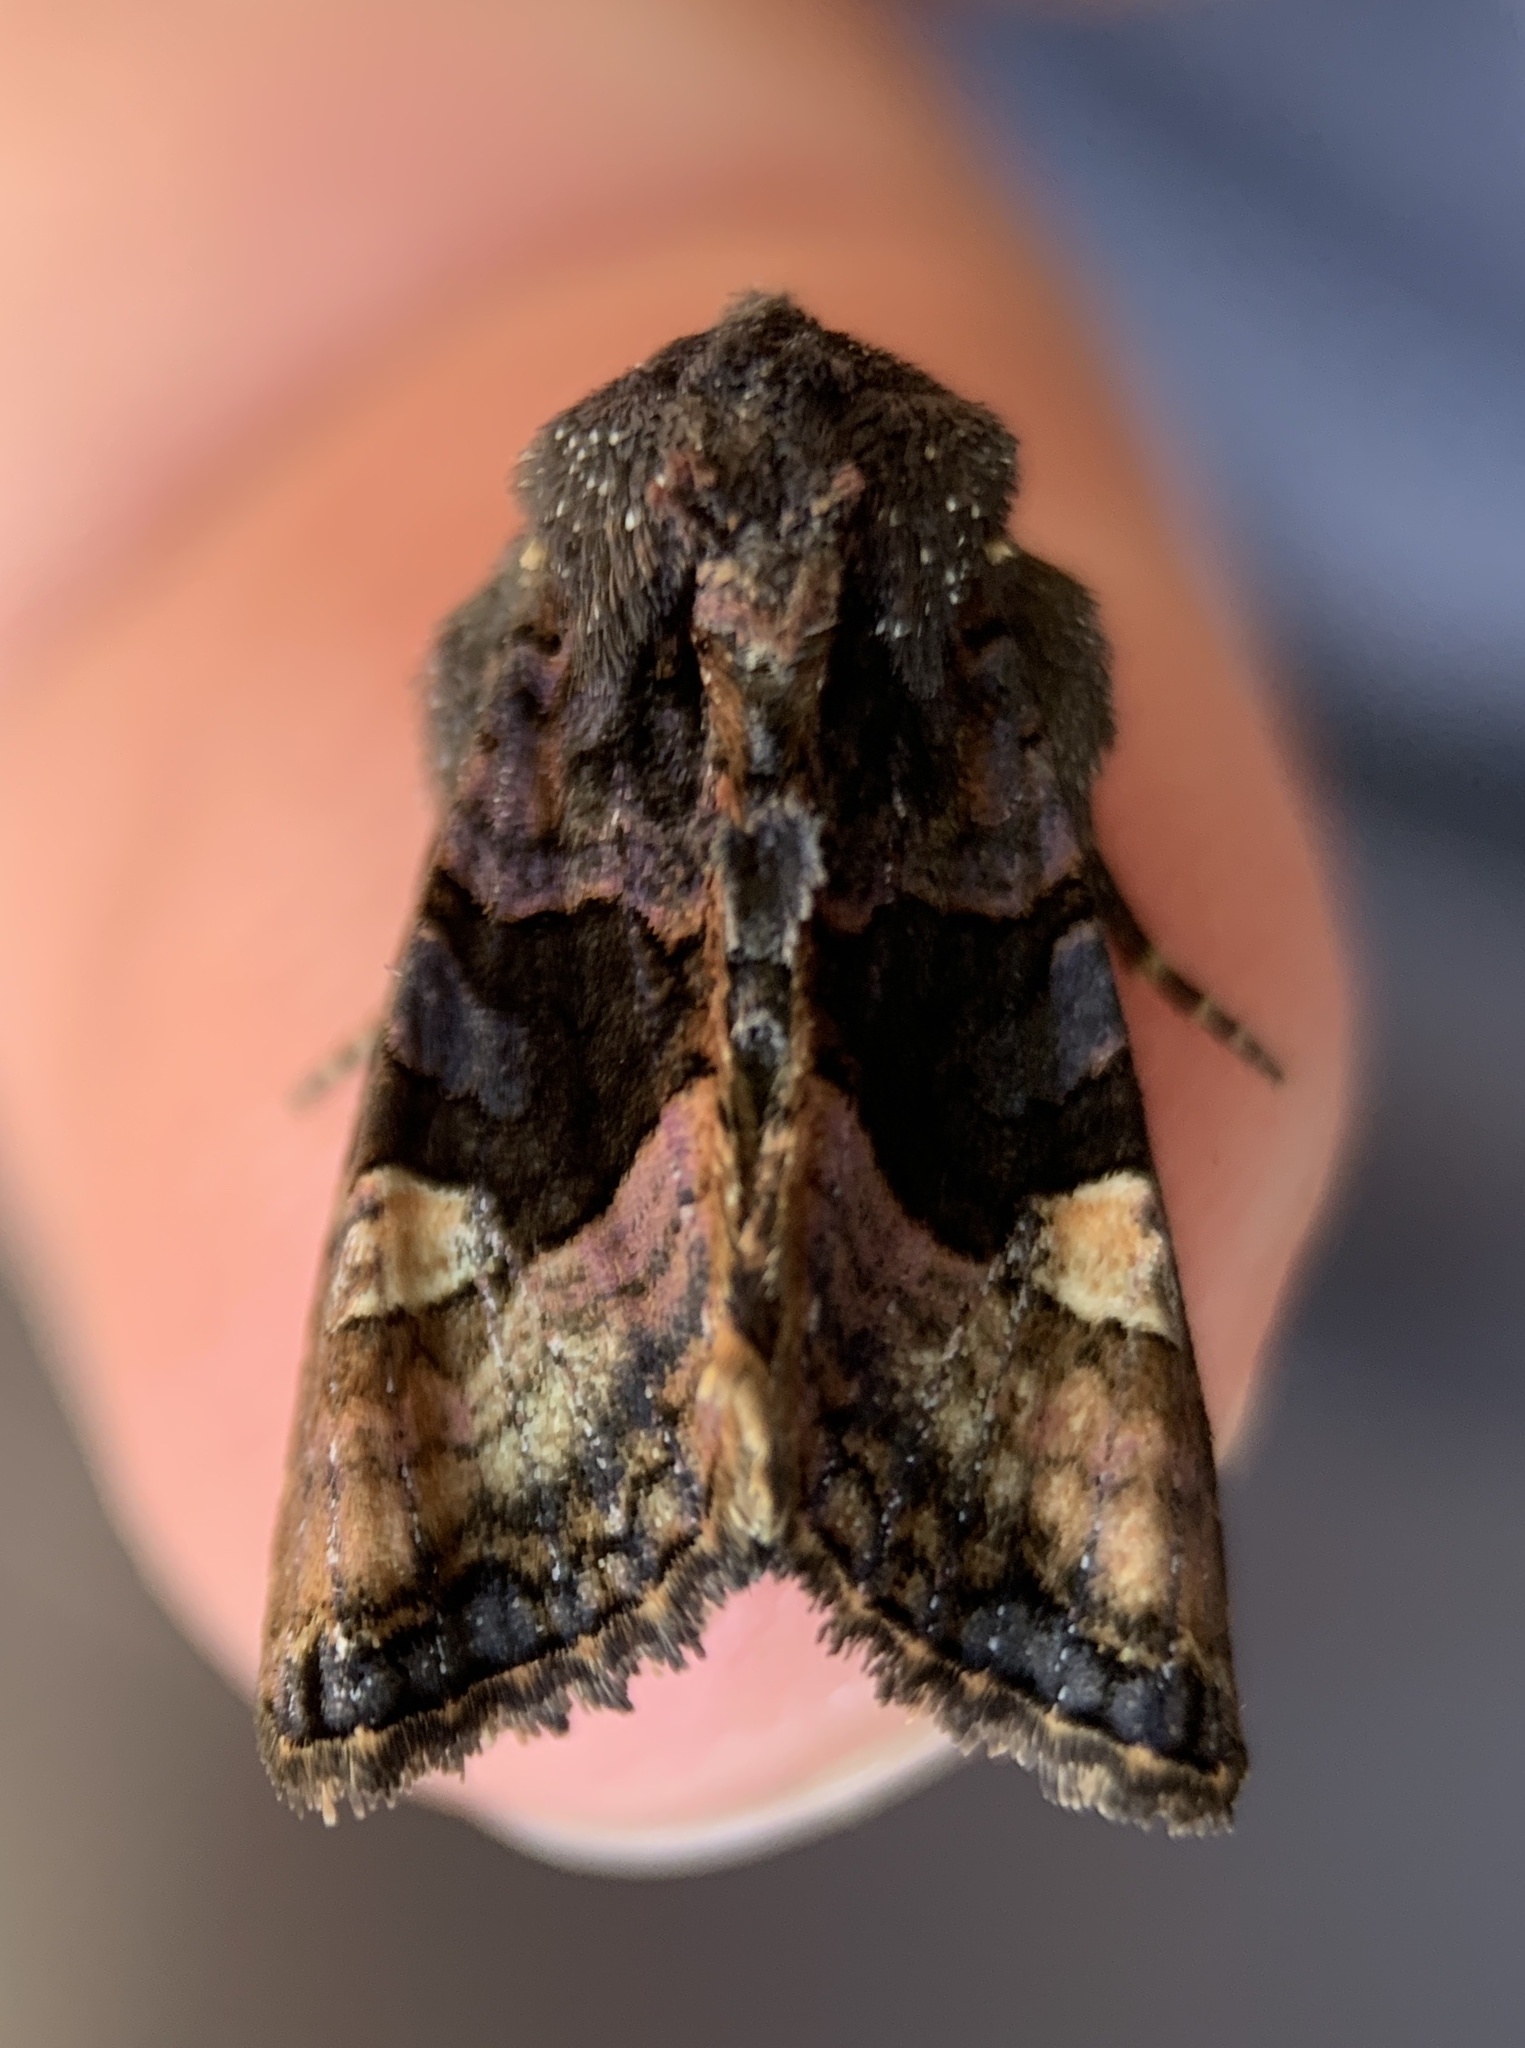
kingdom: Animalia
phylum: Arthropoda
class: Insecta
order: Lepidoptera
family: Noctuidae
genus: Euplexia
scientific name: Euplexia benesimilis
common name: American angle shades
